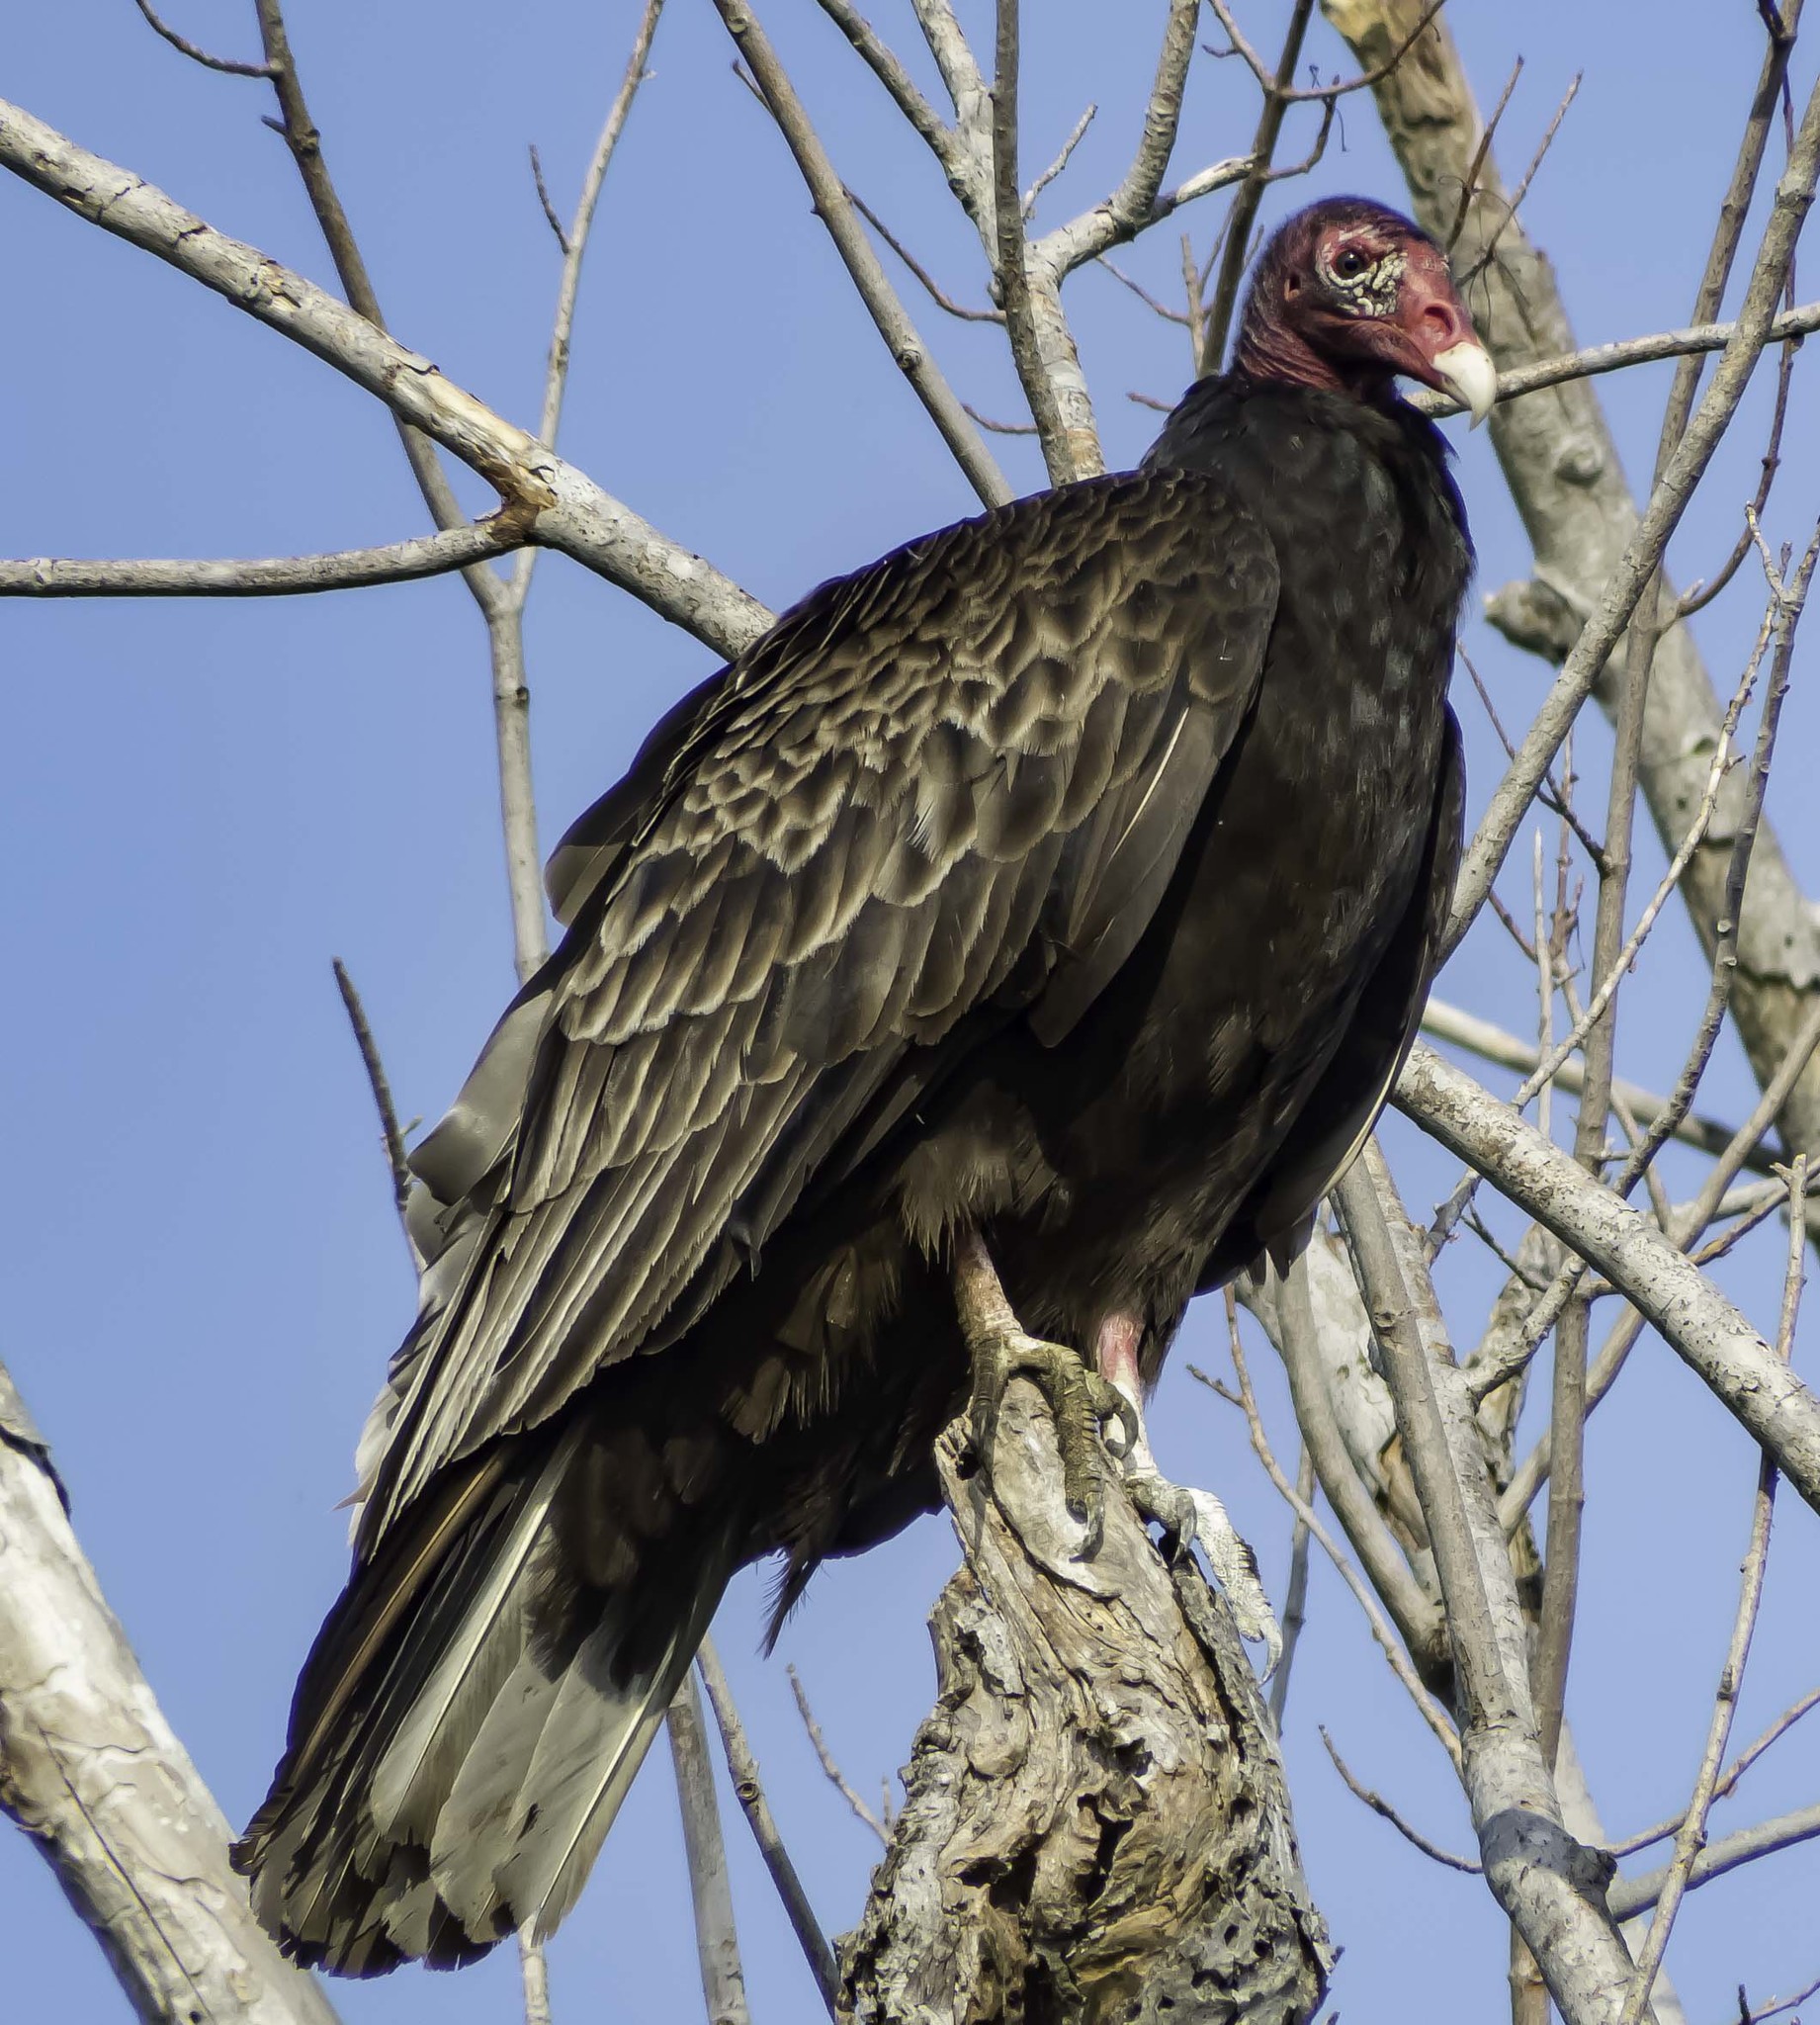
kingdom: Animalia
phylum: Chordata
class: Aves
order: Accipitriformes
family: Cathartidae
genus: Cathartes
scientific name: Cathartes aura
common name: Turkey vulture
